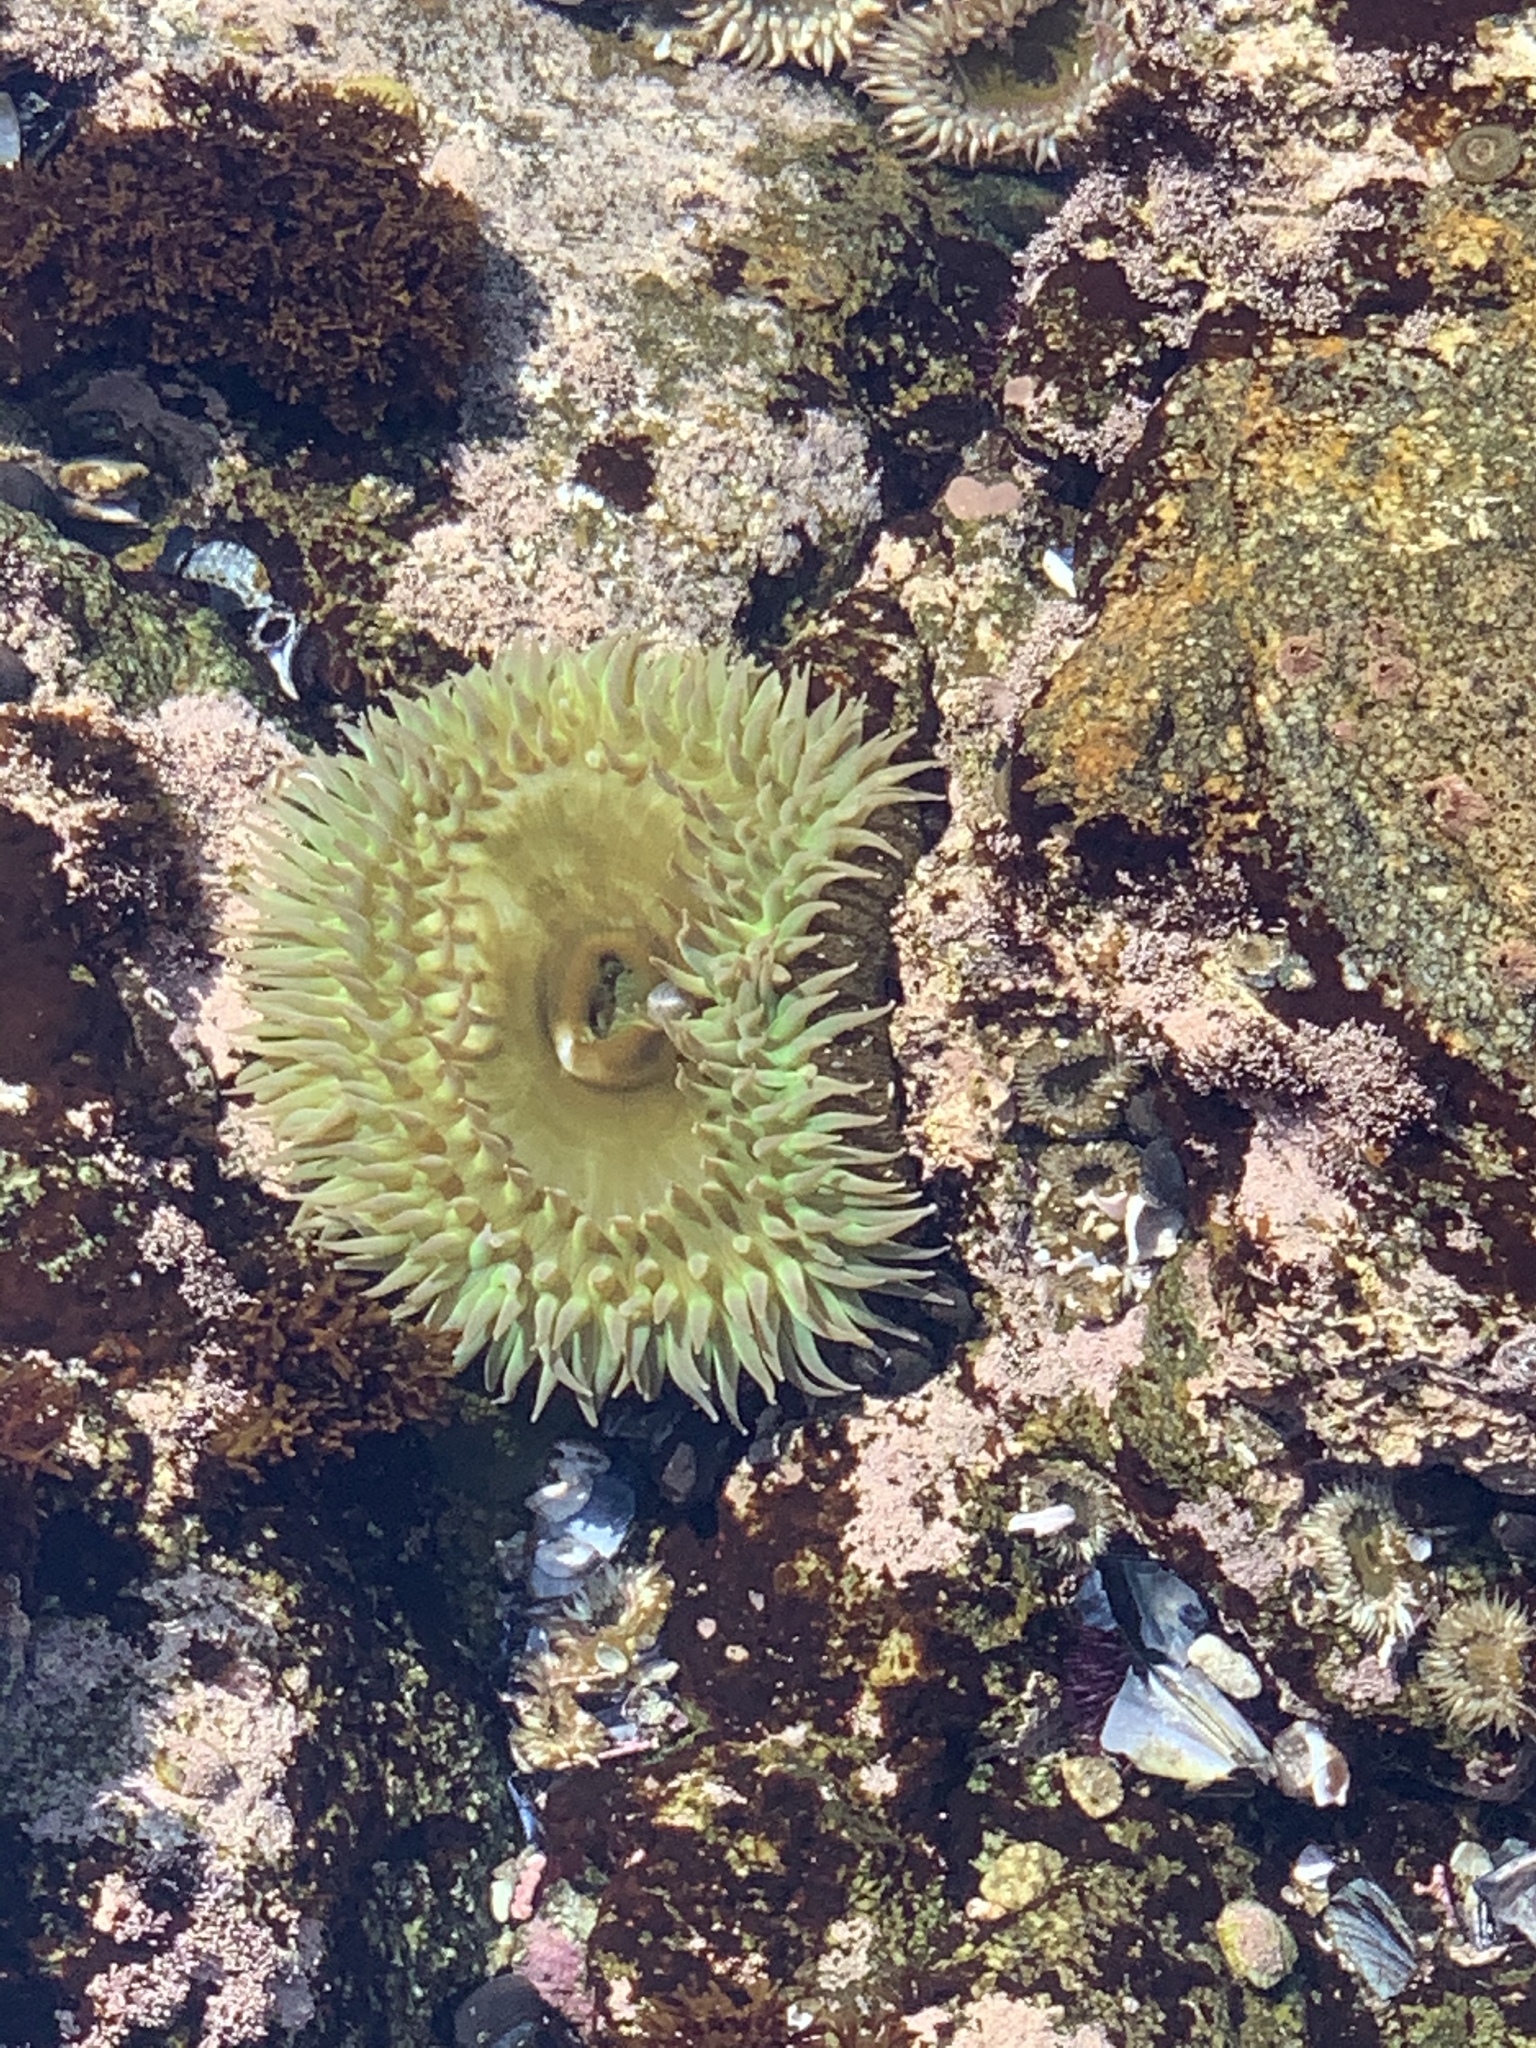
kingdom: Animalia
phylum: Cnidaria
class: Anthozoa
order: Actiniaria
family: Actiniidae
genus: Anthopleura
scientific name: Anthopleura xanthogrammica
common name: Giant green anemone
